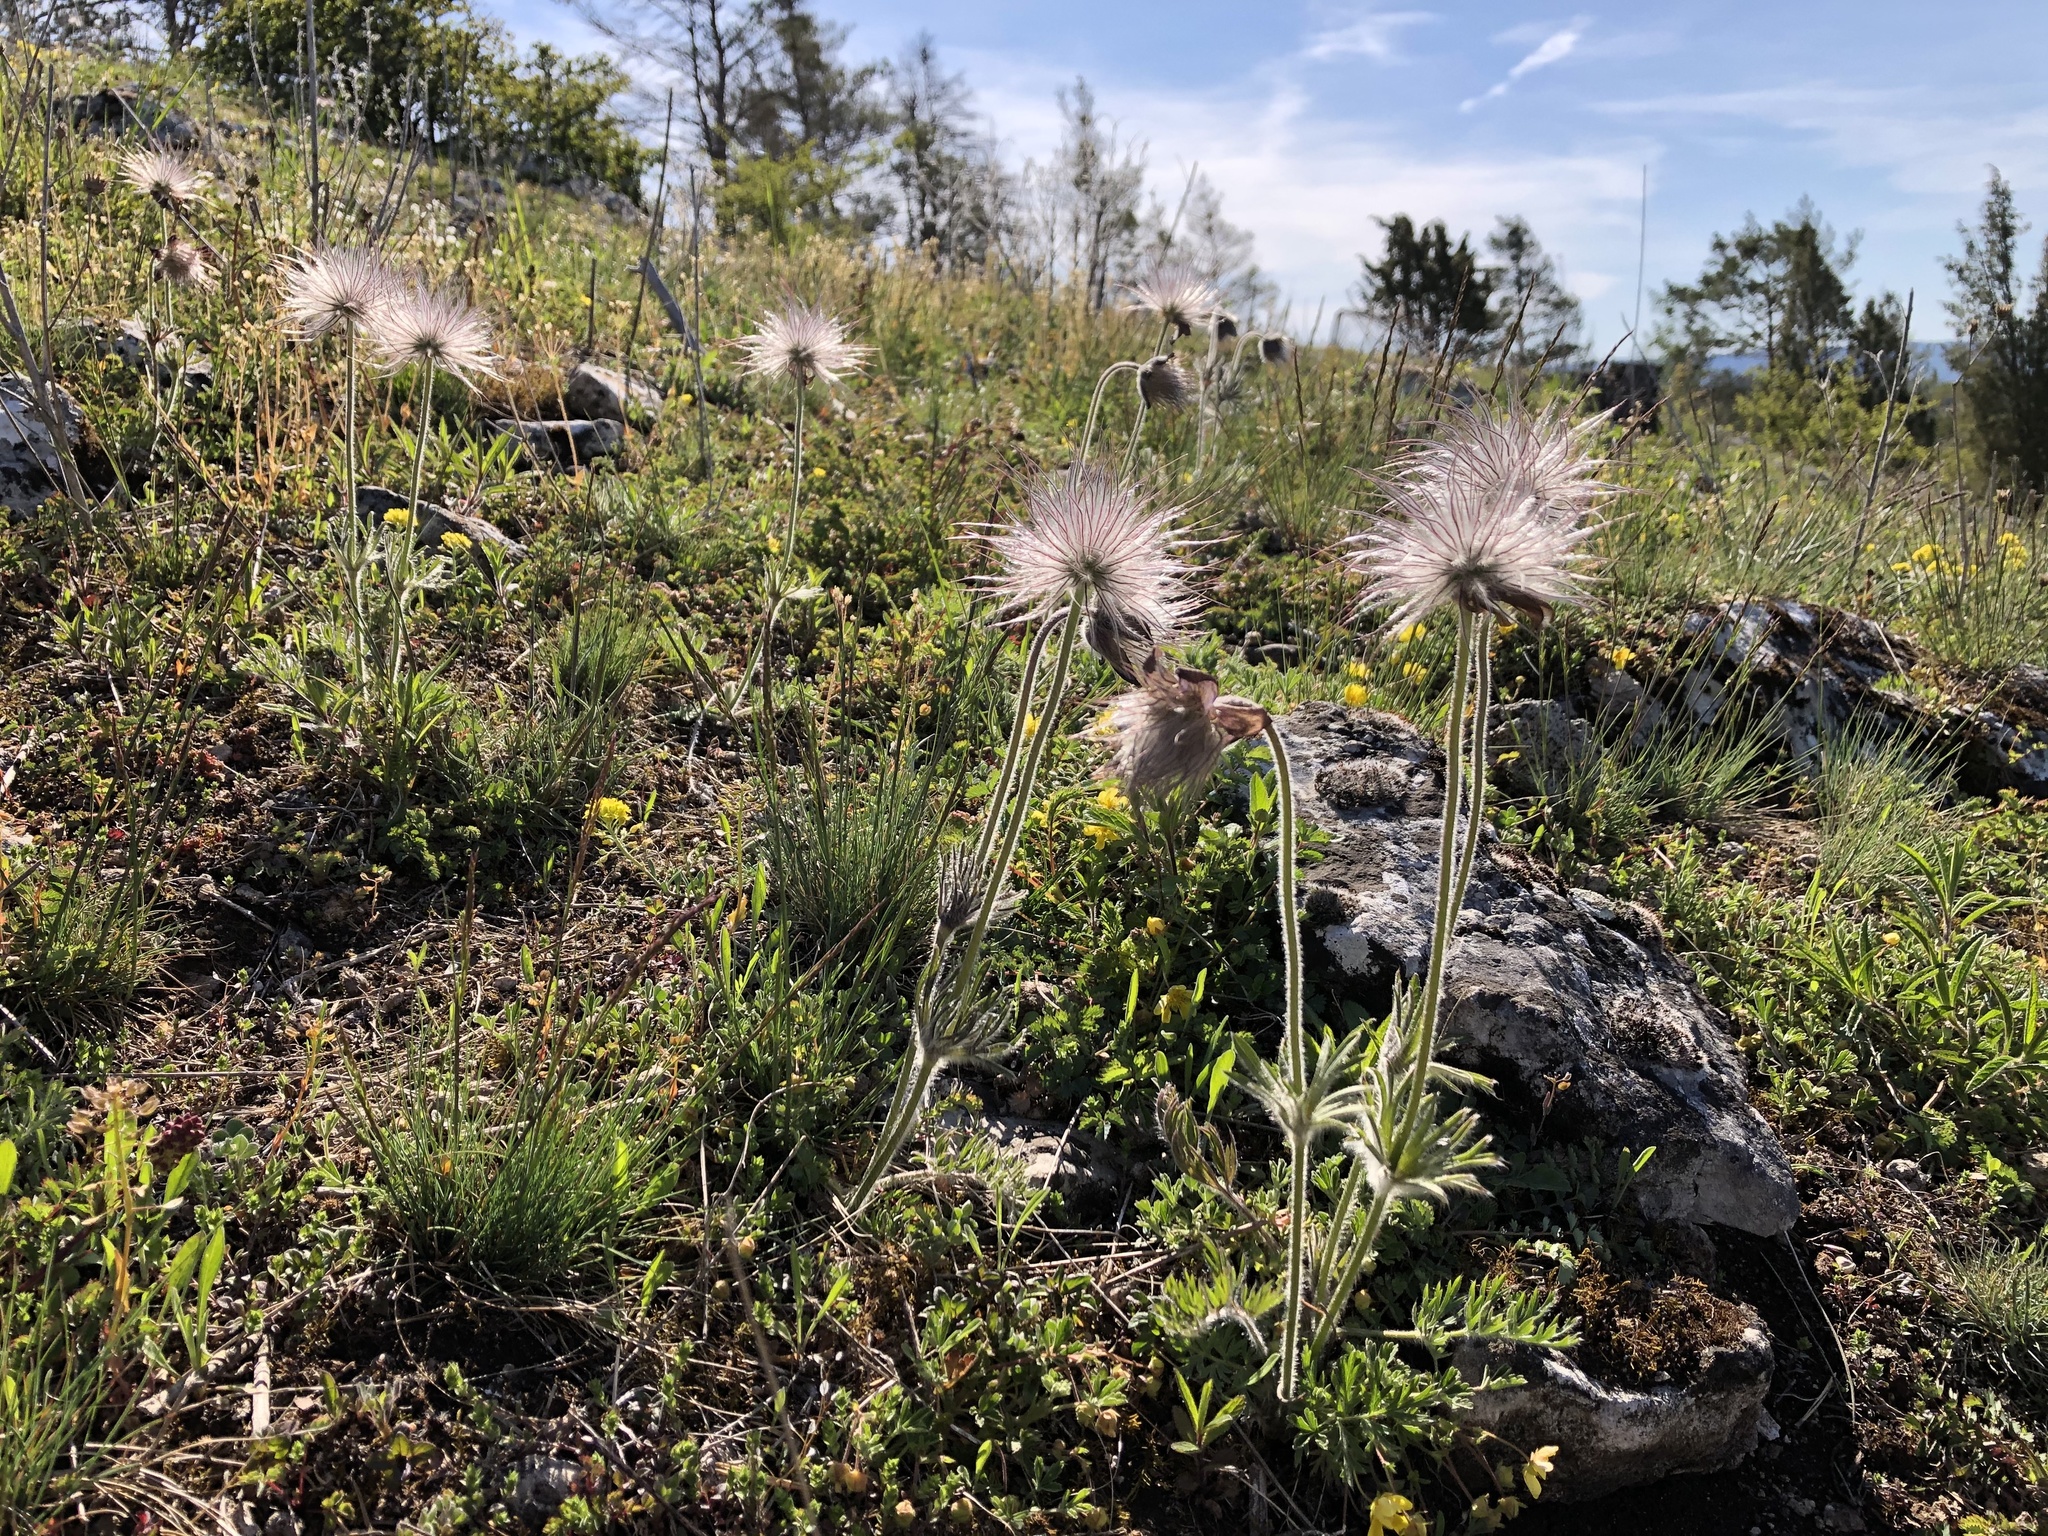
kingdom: Plantae
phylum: Tracheophyta
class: Magnoliopsida
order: Ranunculales
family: Ranunculaceae
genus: Pulsatilla
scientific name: Pulsatilla pratensis
